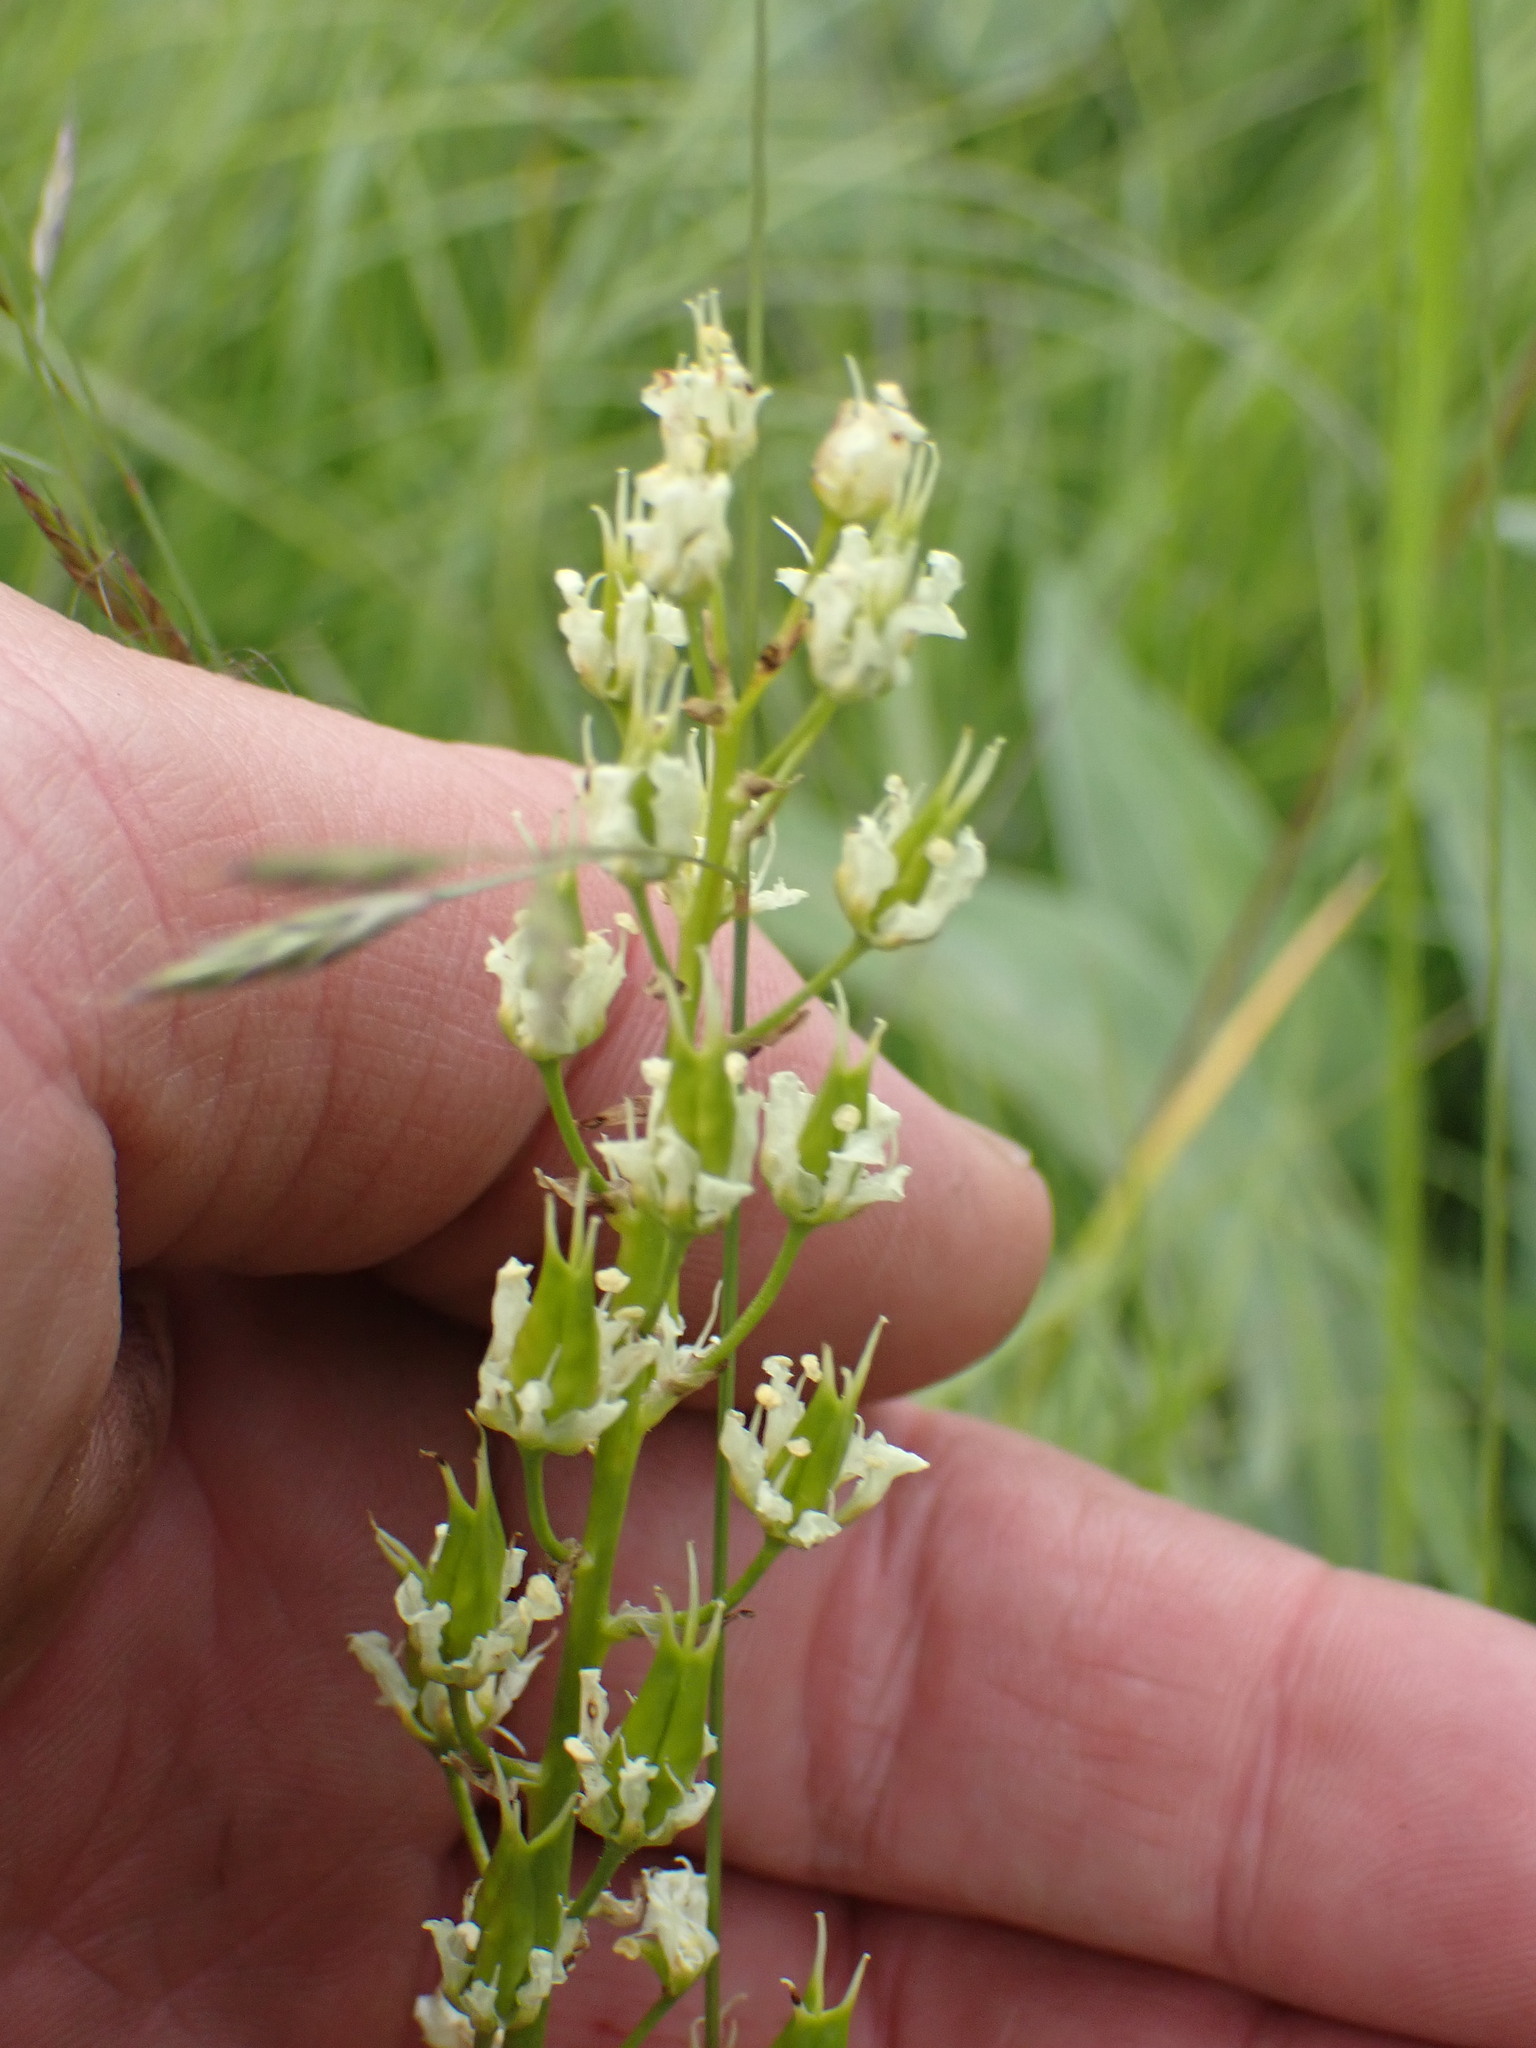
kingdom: Plantae
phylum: Tracheophyta
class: Liliopsida
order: Liliales
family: Melanthiaceae
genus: Toxicoscordion
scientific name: Toxicoscordion venenosum
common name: Meadow death camas
